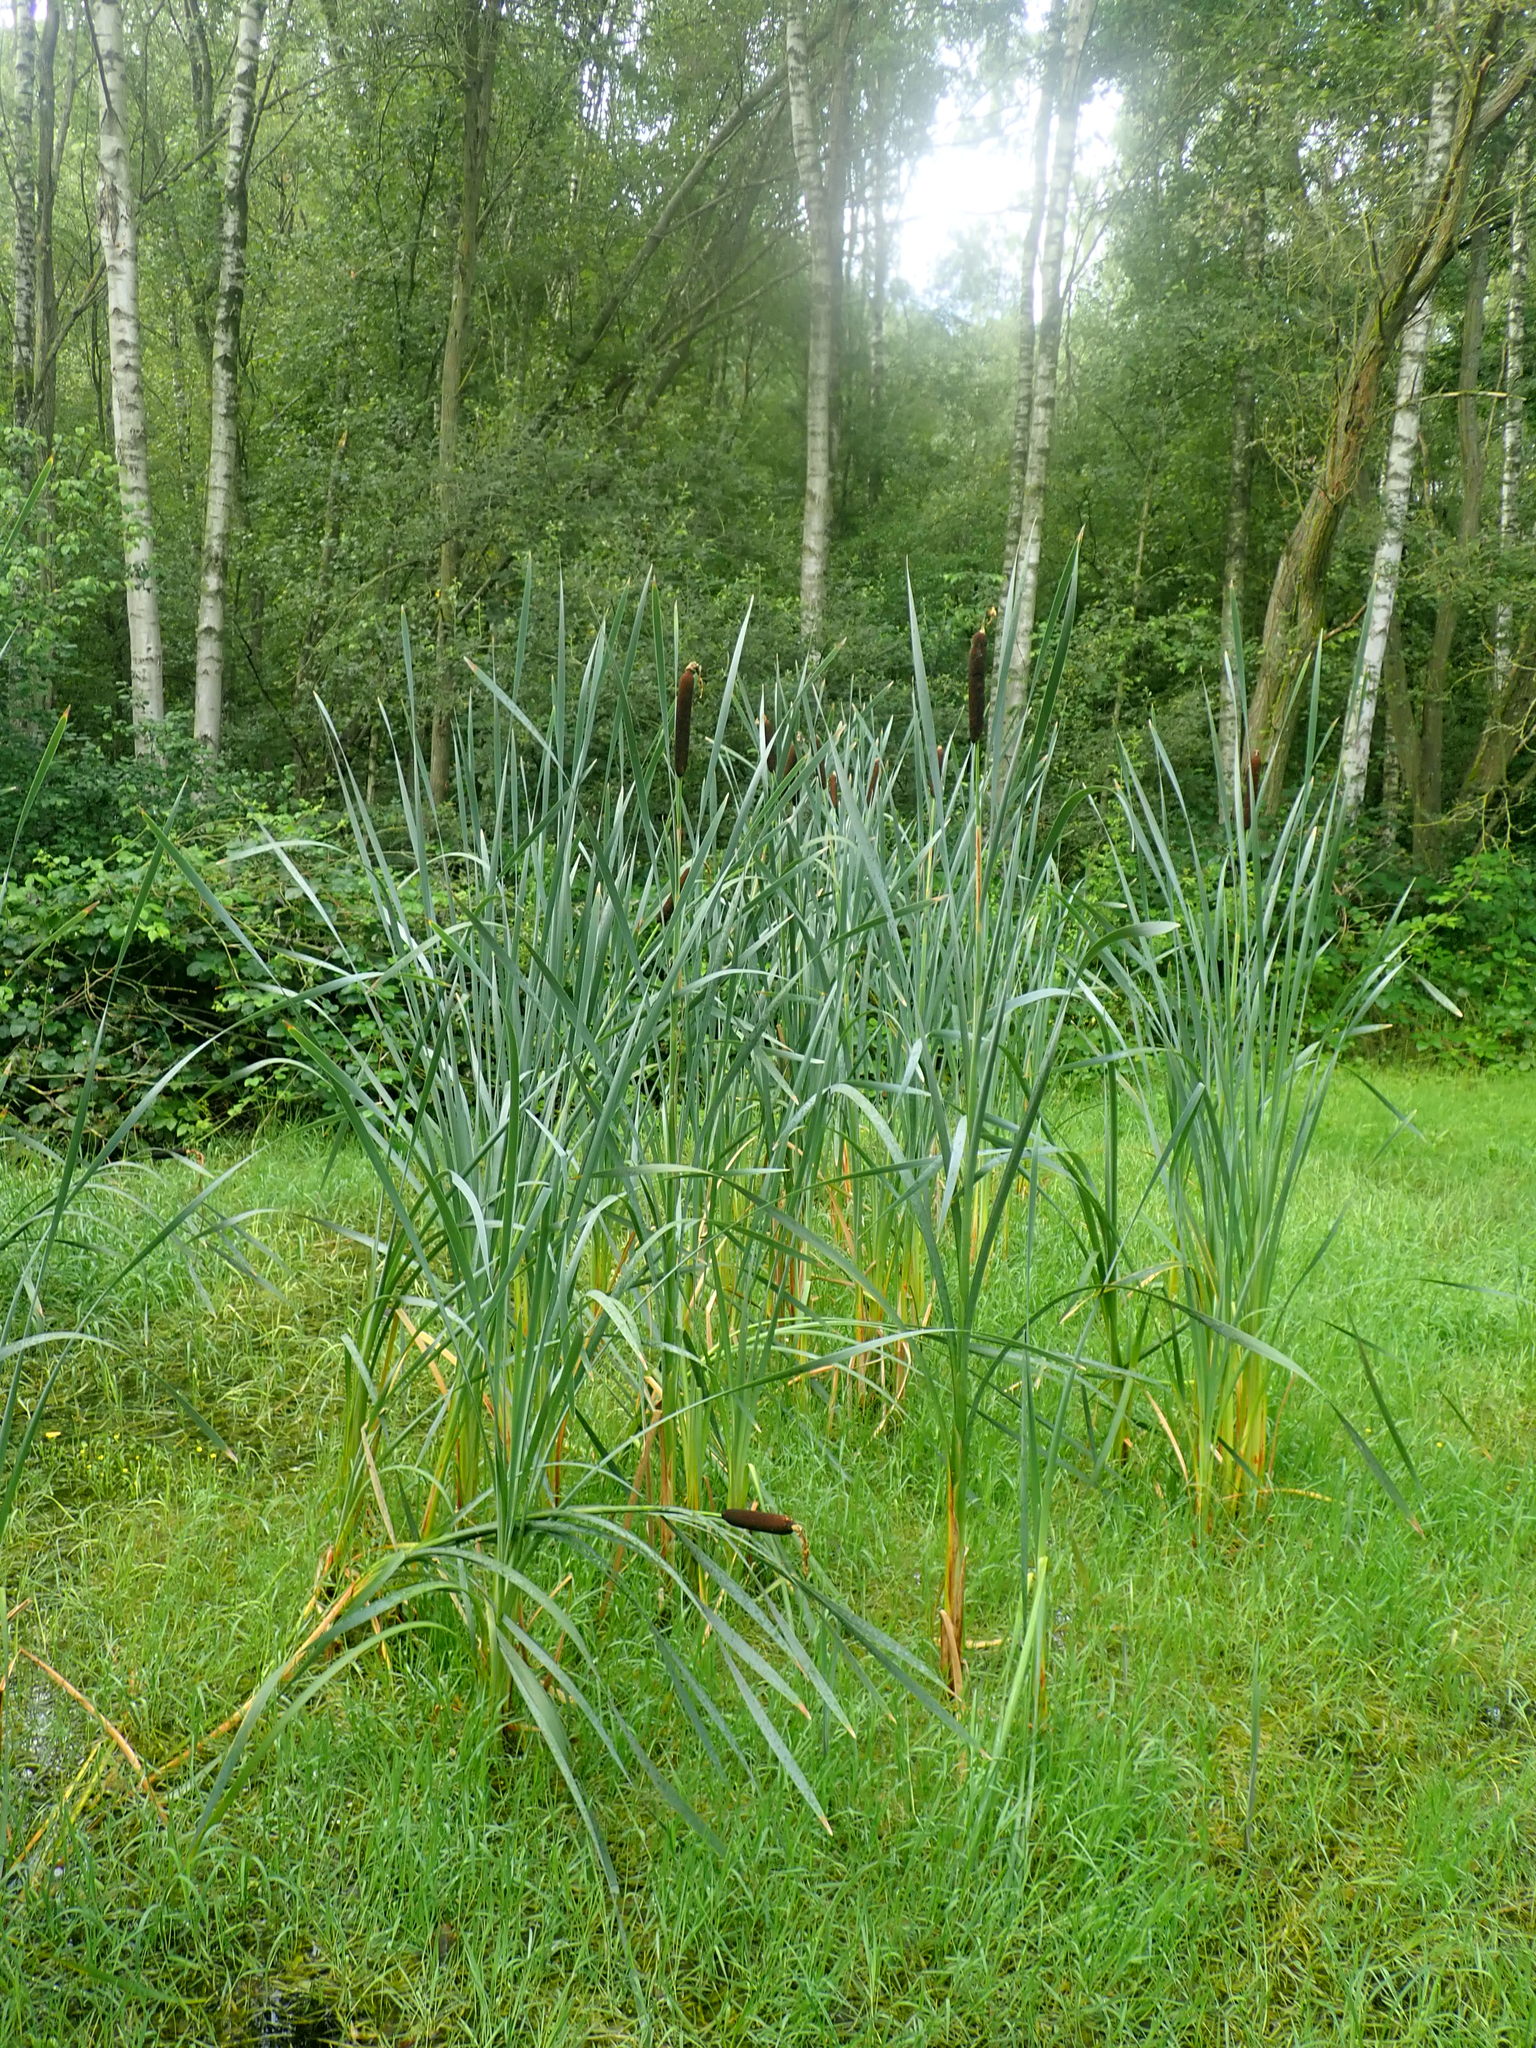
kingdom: Plantae
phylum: Tracheophyta
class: Liliopsida
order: Poales
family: Typhaceae
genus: Typha
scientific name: Typha latifolia
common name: Broadleaf cattail
